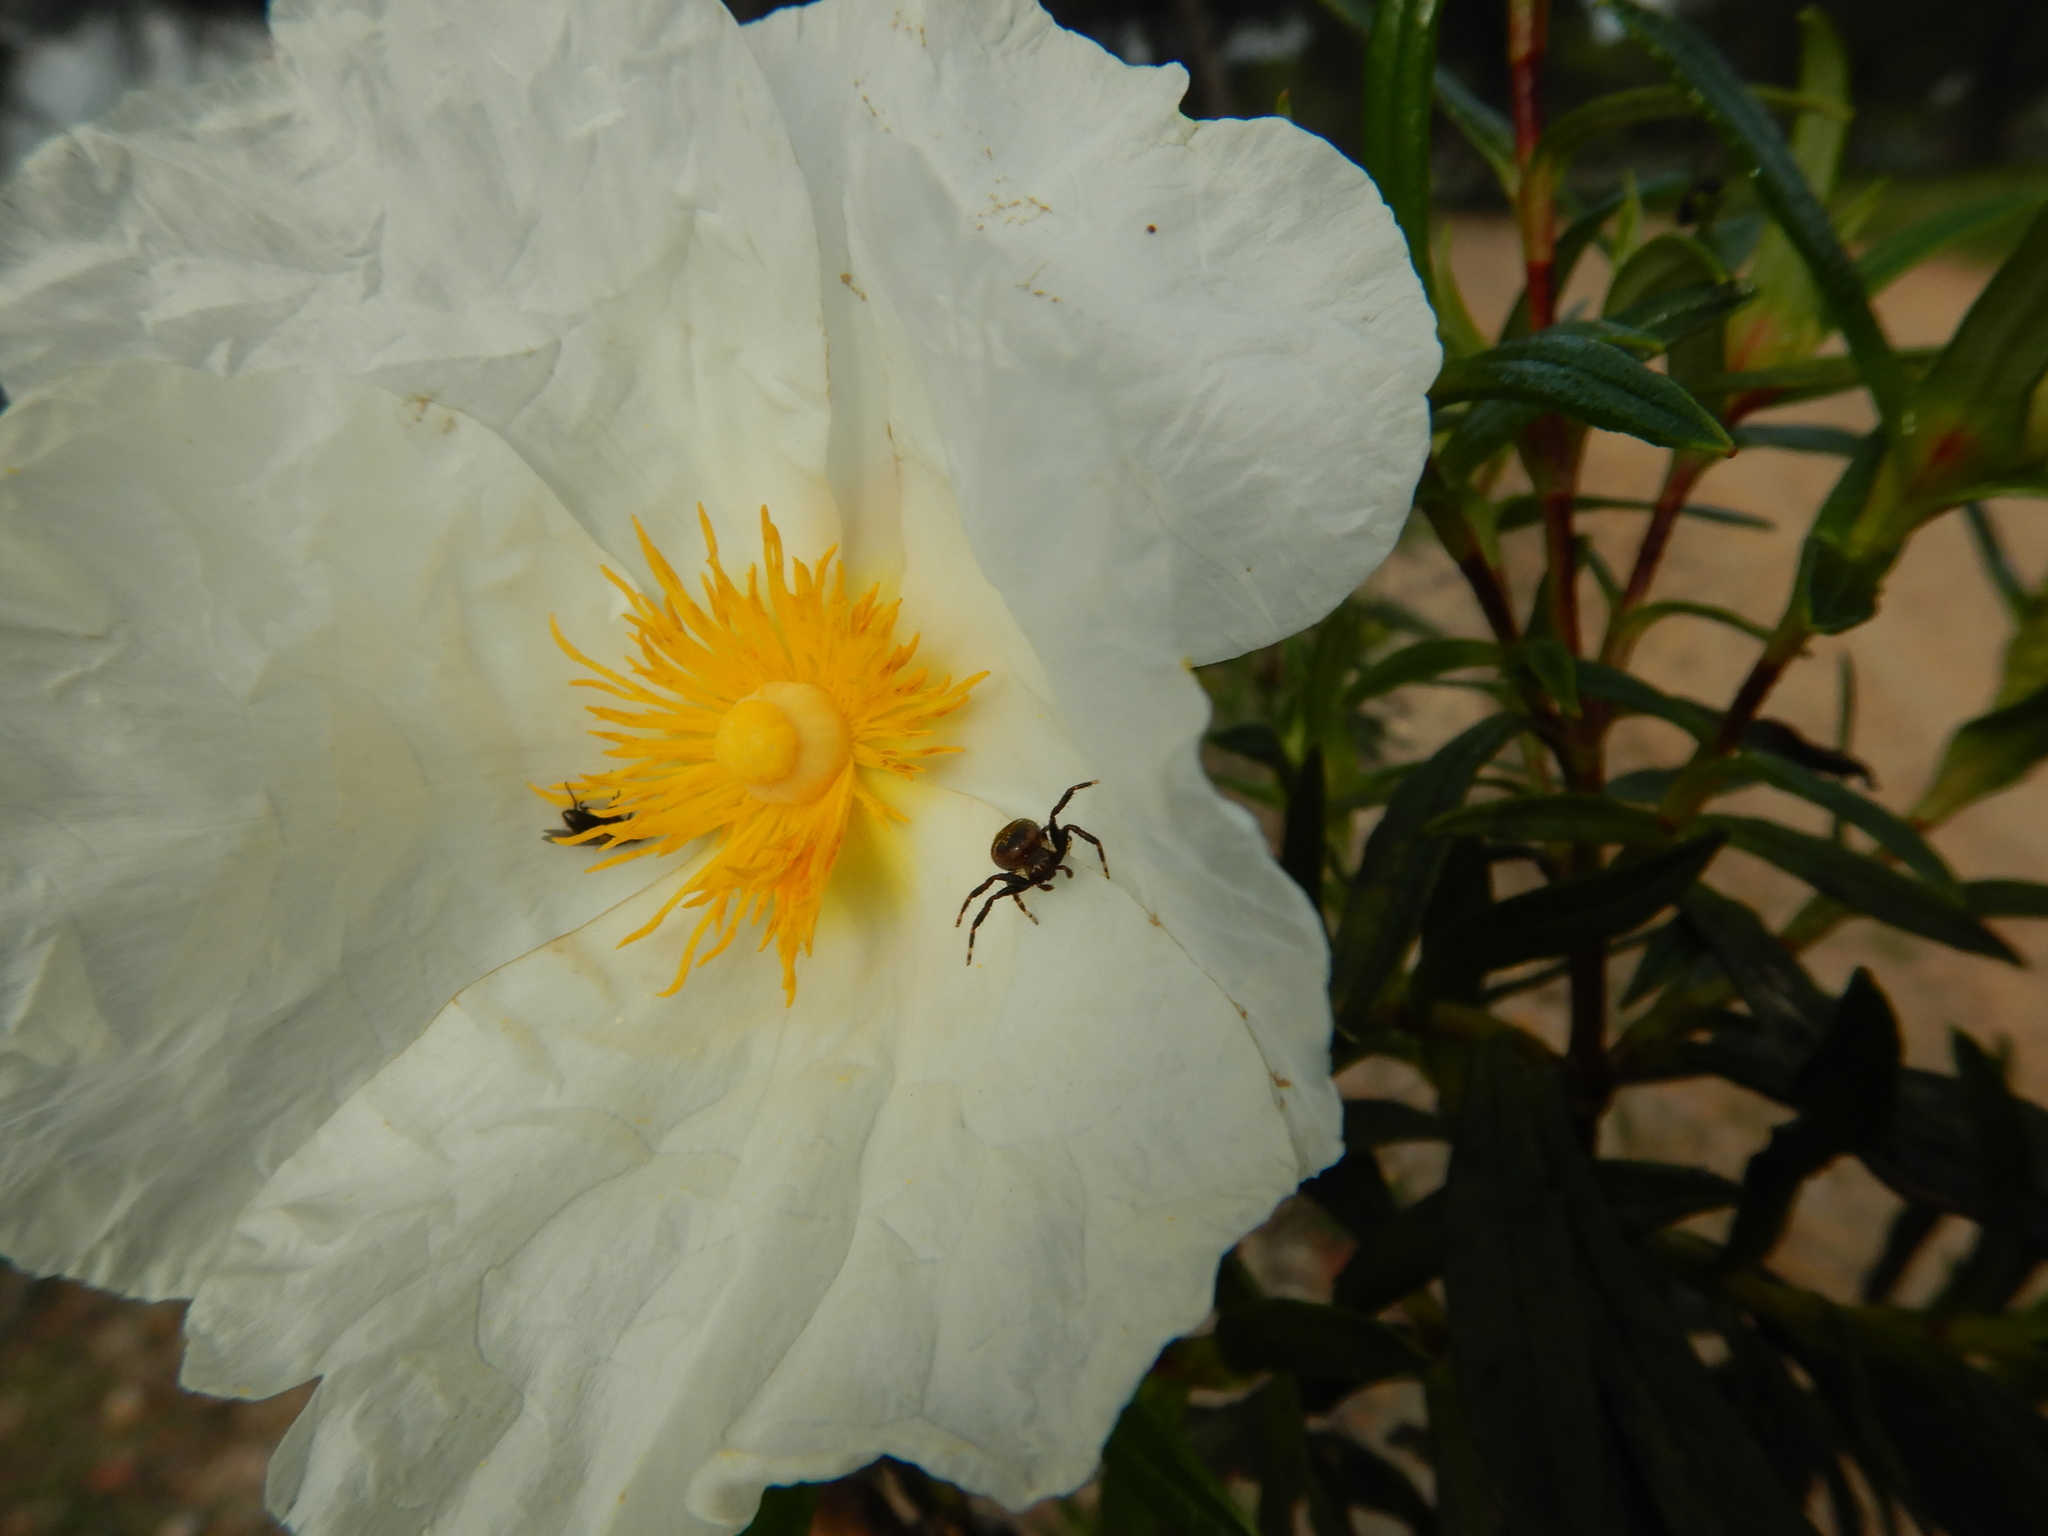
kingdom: Animalia
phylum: Arthropoda
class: Arachnida
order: Araneae
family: Thomisidae
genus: Synema
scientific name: Synema globosum
